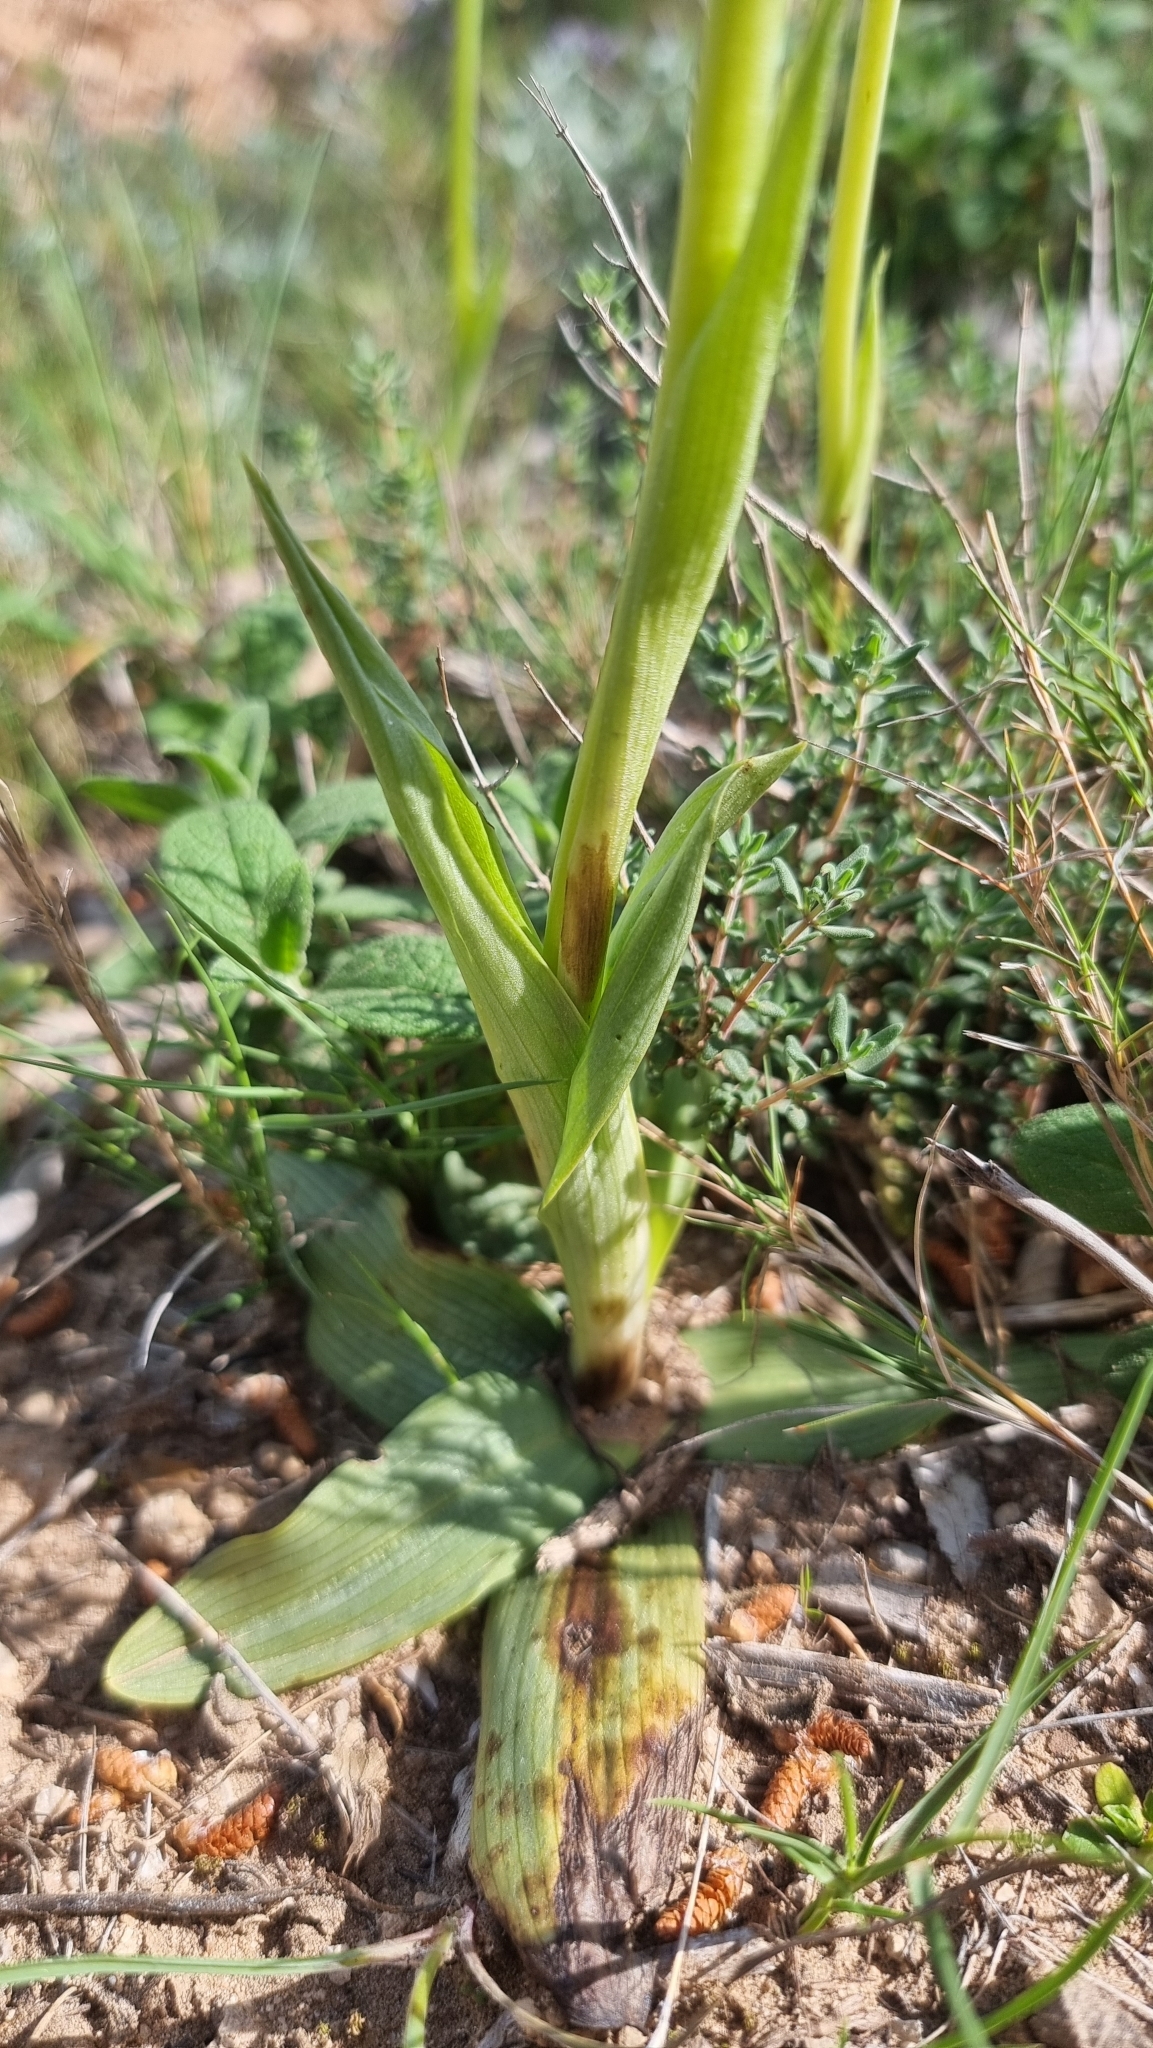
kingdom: Plantae
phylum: Tracheophyta
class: Liliopsida
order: Asparagales
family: Orchidaceae
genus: Ophrys
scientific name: Ophrys sphegodes
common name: Early spider-orchid
